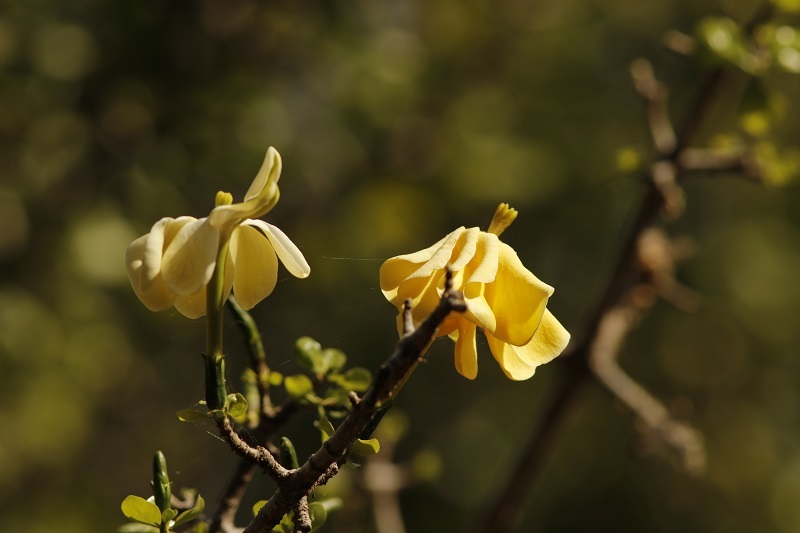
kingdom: Plantae
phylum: Tracheophyta
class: Magnoliopsida
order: Gentianales
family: Rubiaceae
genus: Gardenia
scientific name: Gardenia volkensii
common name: Common gardenia
